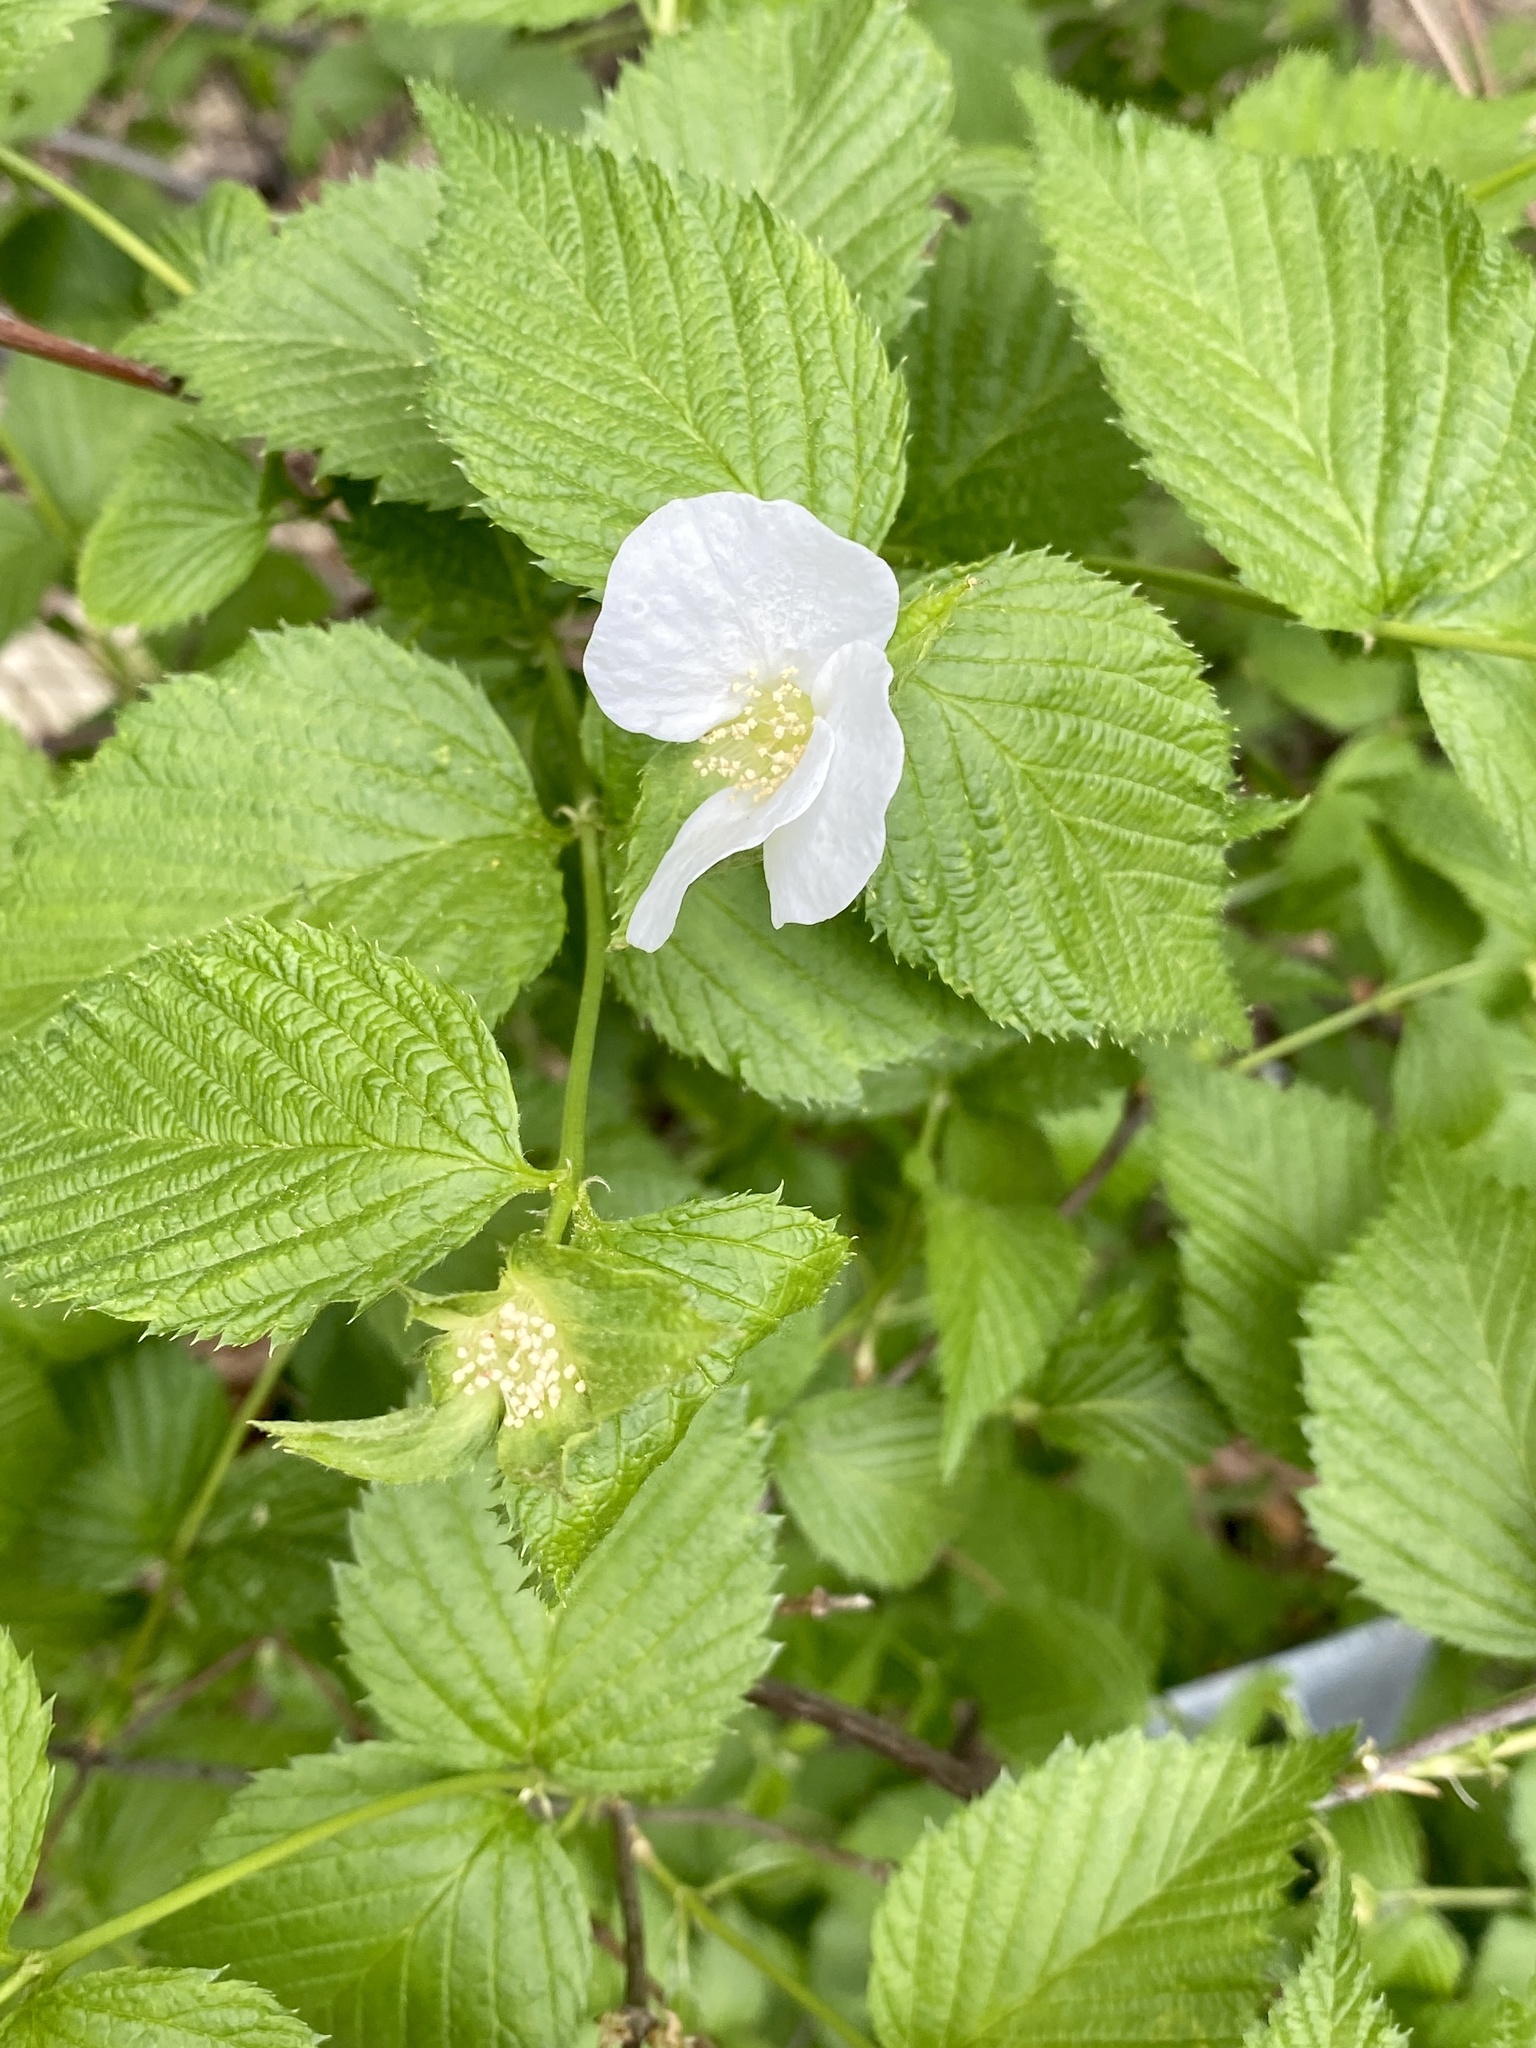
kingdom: Plantae
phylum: Tracheophyta
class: Magnoliopsida
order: Rosales
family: Rosaceae
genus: Rhodotypos
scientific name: Rhodotypos scandens
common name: Jetbead
